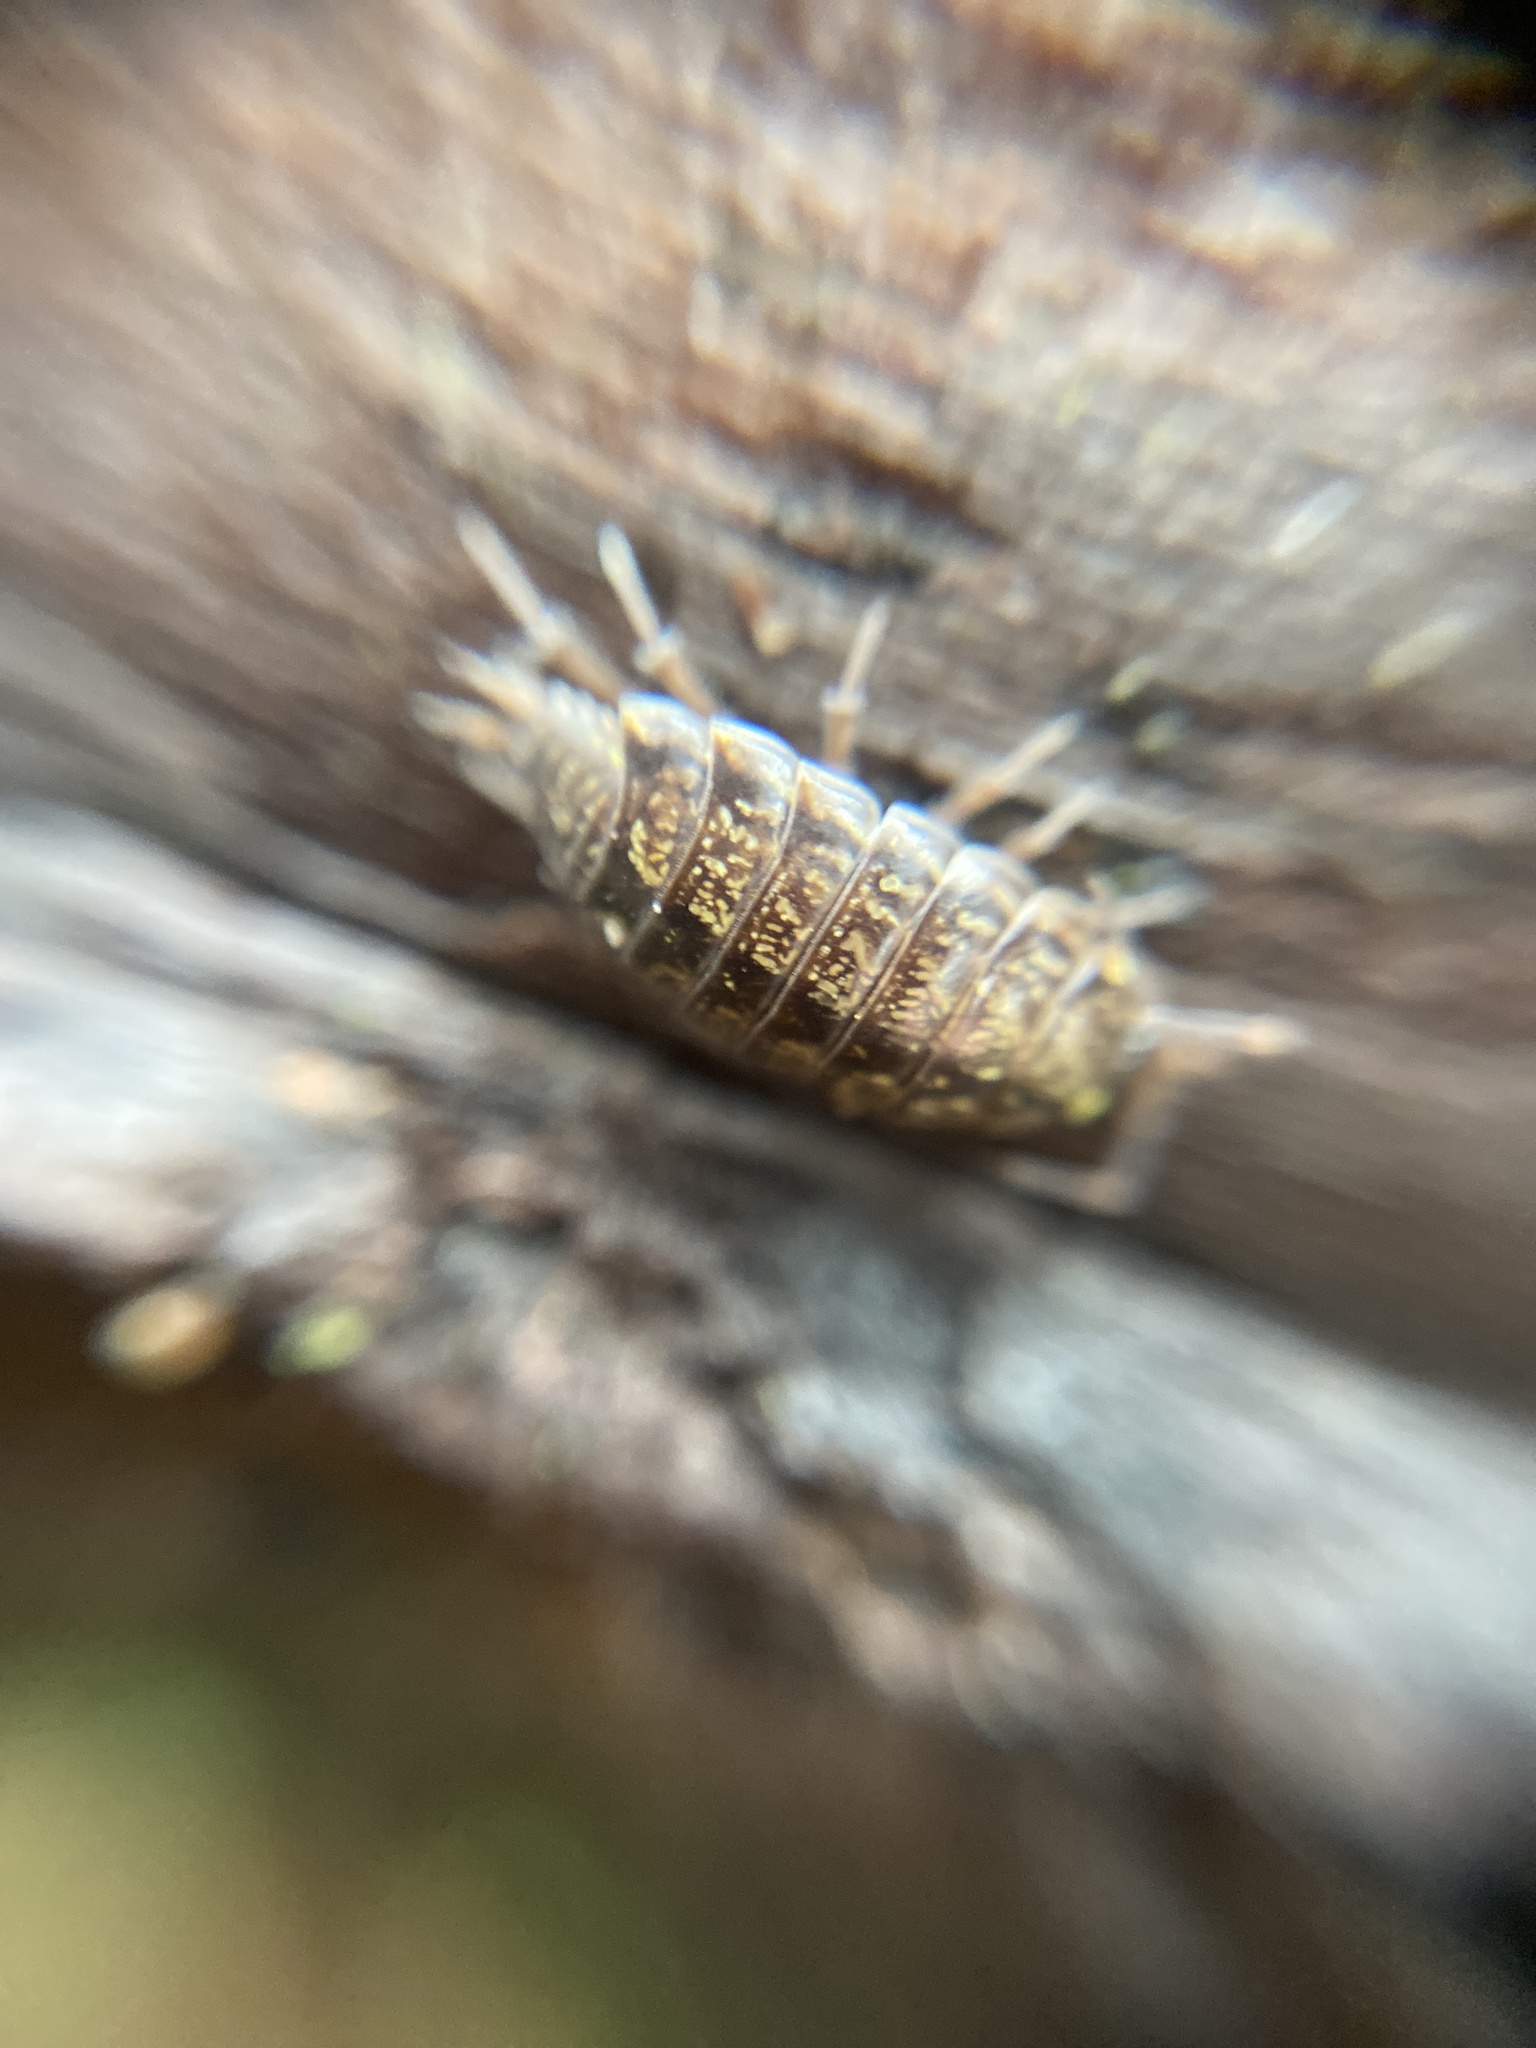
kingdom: Animalia
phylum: Arthropoda
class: Malacostraca
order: Isopoda
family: Philosciidae
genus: Philoscia
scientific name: Philoscia muscorum
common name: Common striped woodlouse
